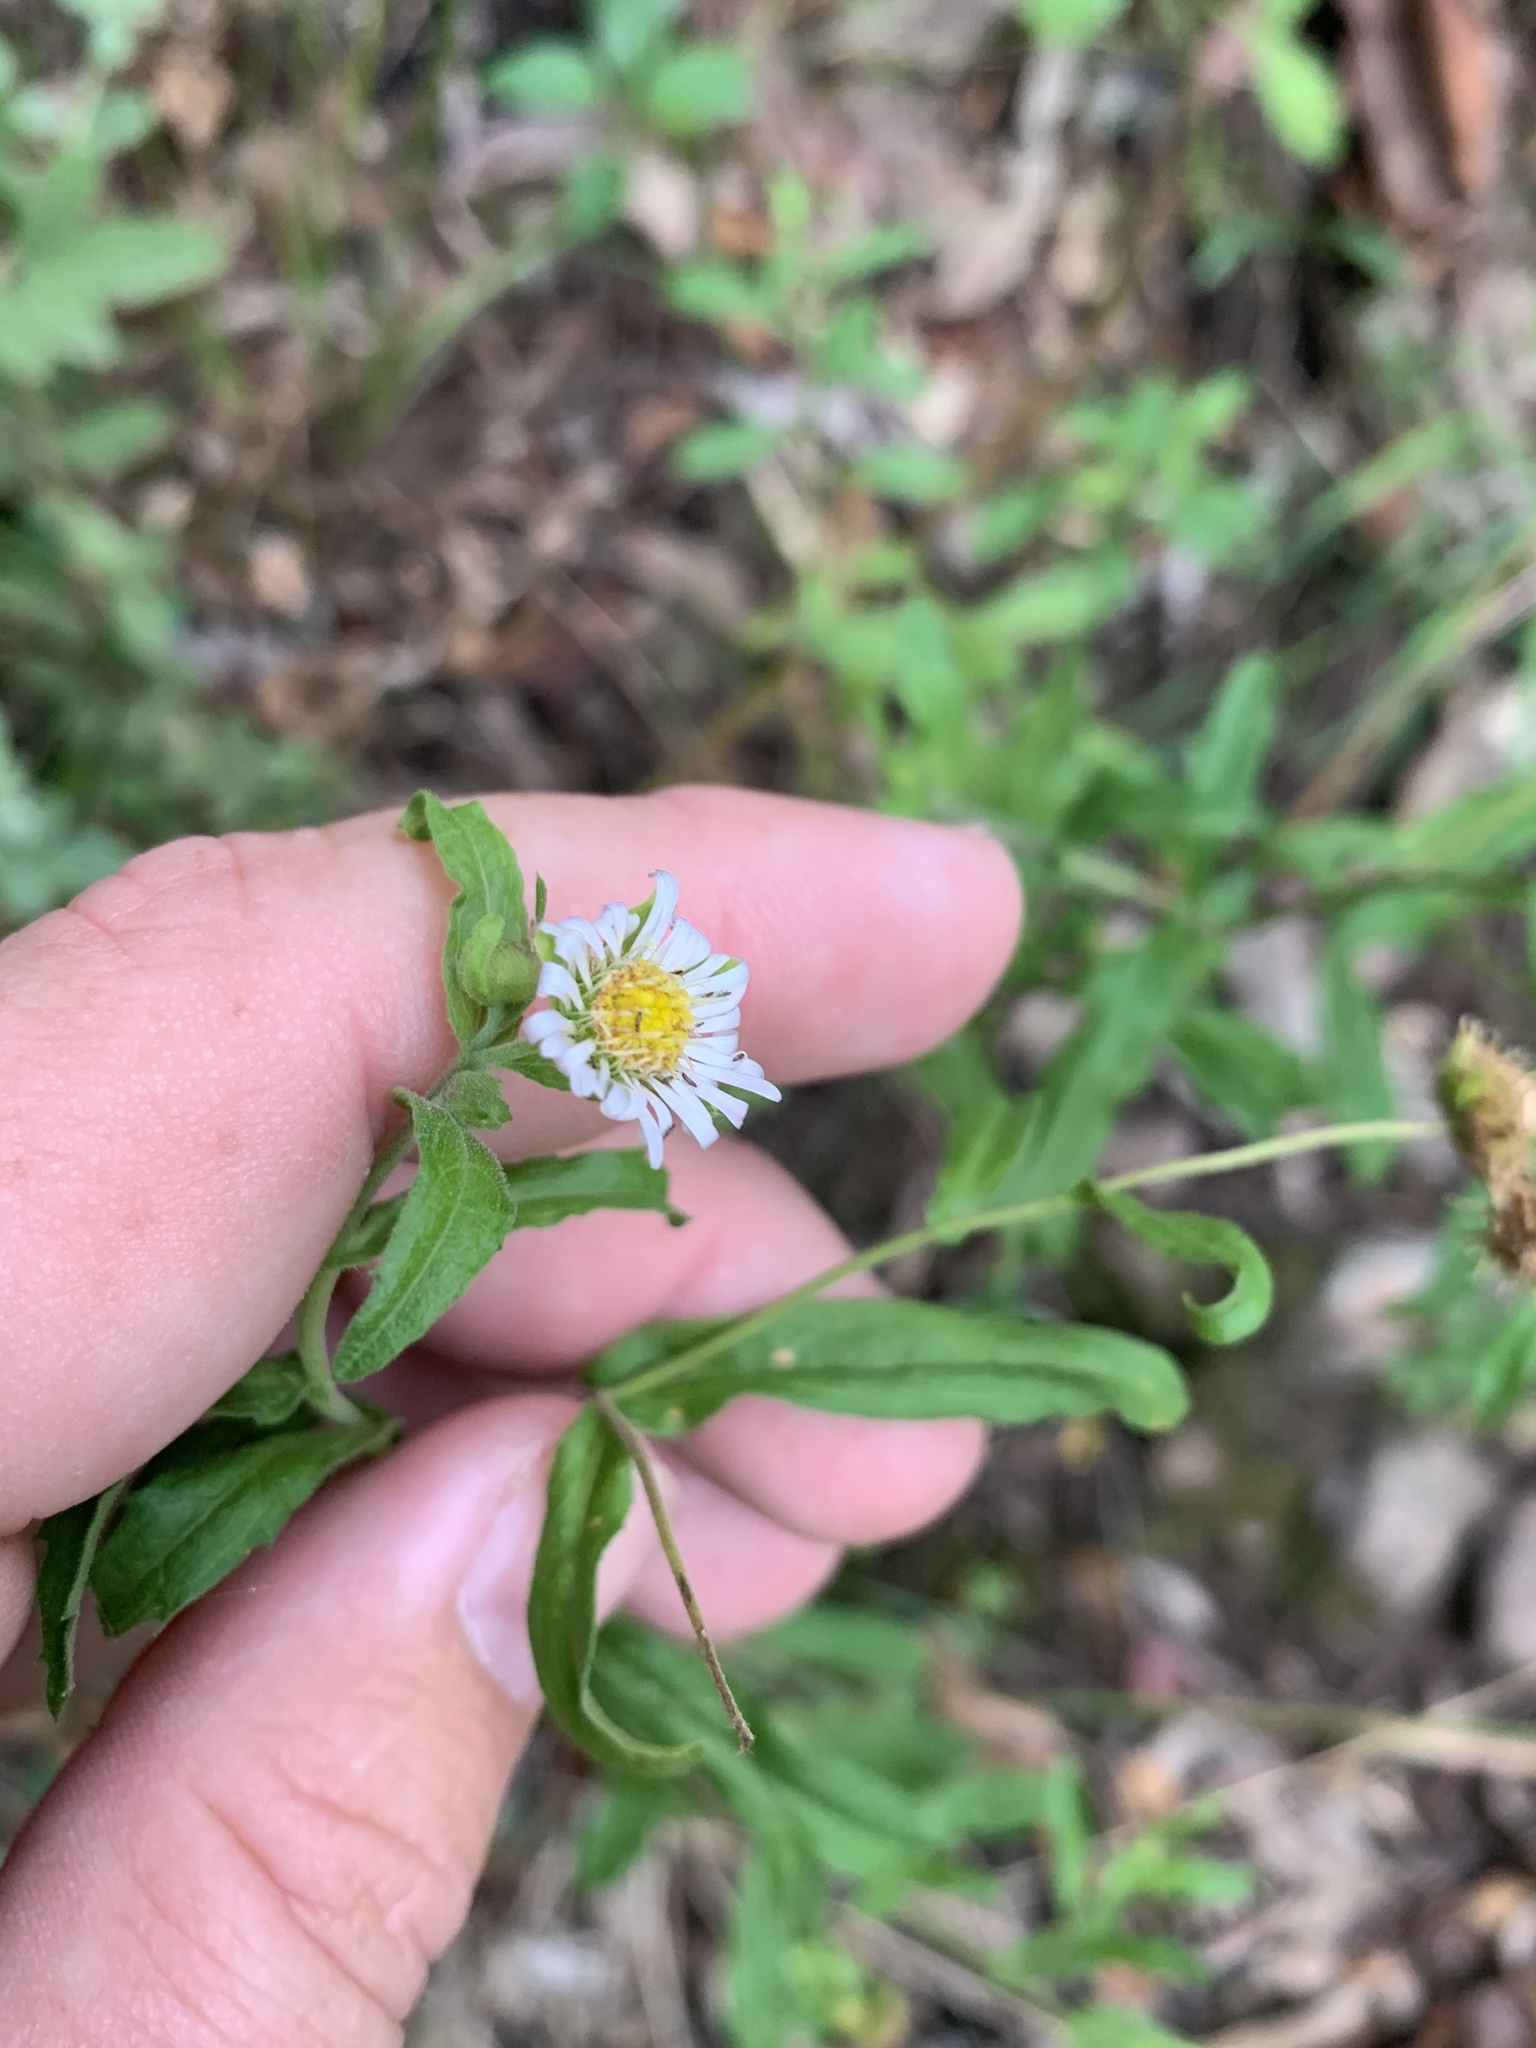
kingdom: Plantae
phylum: Tracheophyta
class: Magnoliopsida
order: Asterales
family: Asteraceae
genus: Calotis
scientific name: Calotis dentex
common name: White bur-daisy
